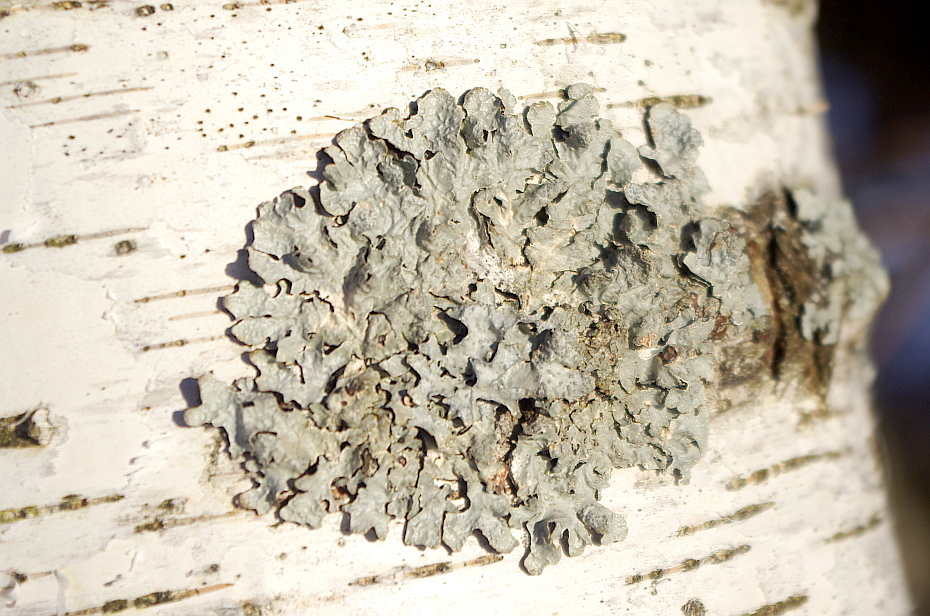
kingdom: Fungi
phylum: Ascomycota
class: Lecanoromycetes
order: Lecanorales
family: Parmeliaceae
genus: Parmelia
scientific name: Parmelia sulcata
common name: Netted shield lichen
